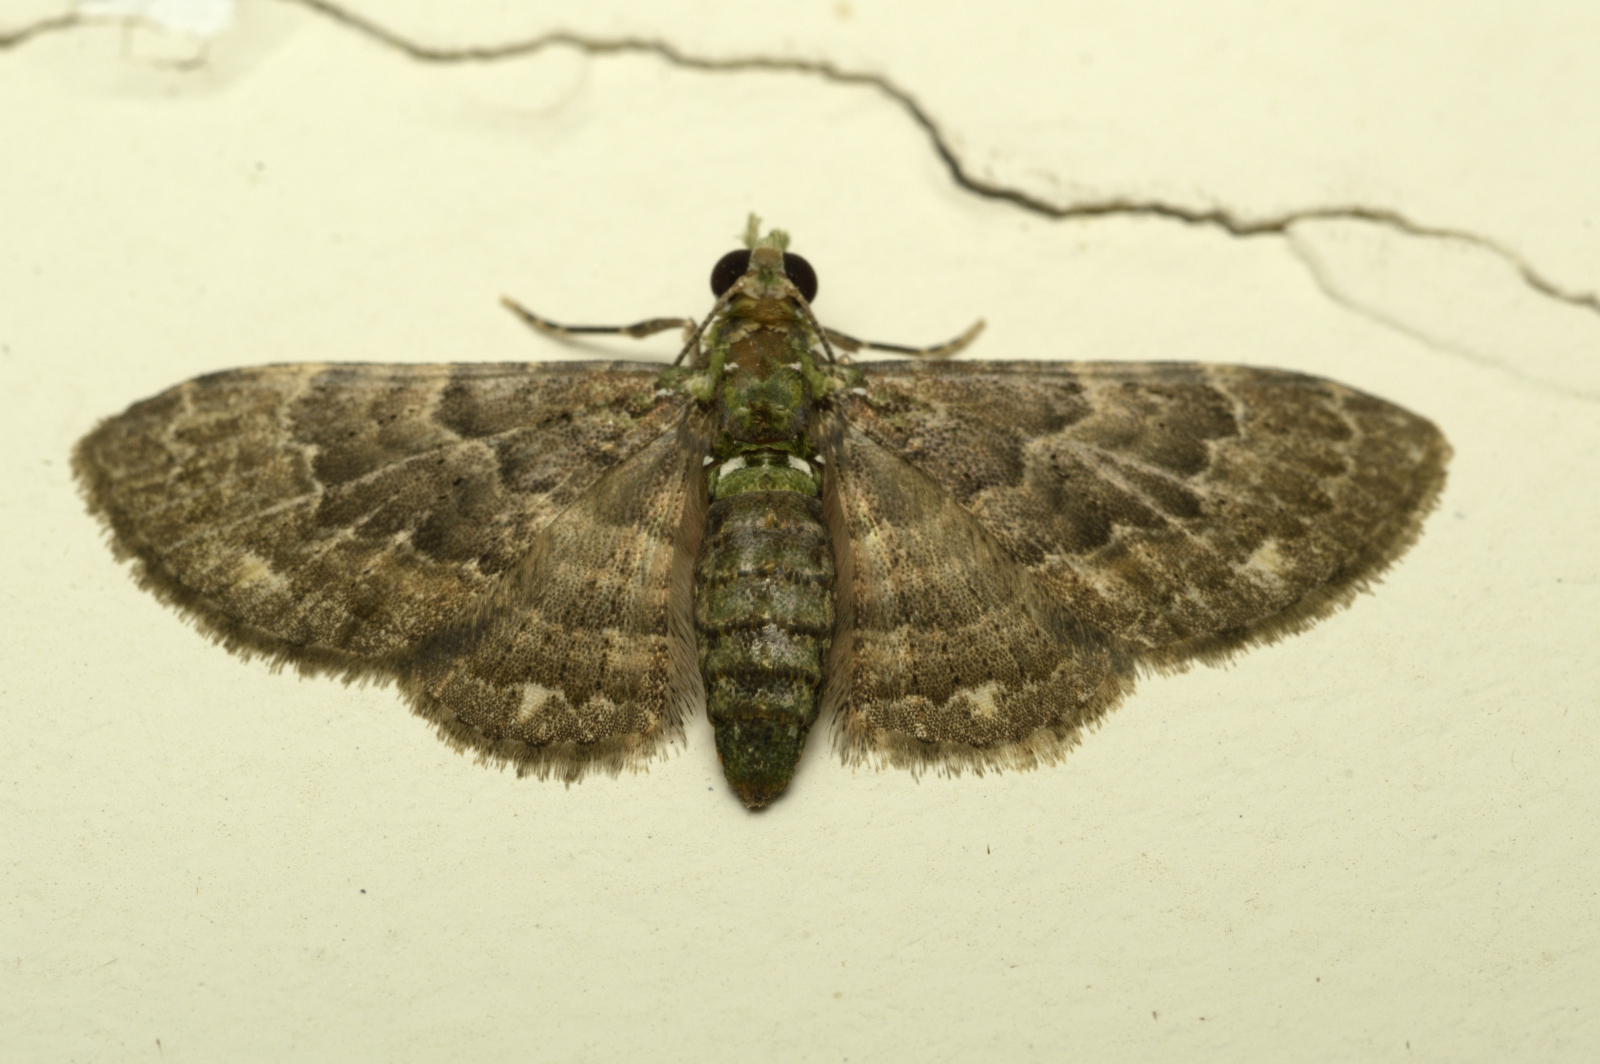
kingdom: Animalia
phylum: Arthropoda
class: Insecta
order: Lepidoptera
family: Geometridae
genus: Antimimistis
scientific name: Antimimistis attenuata
